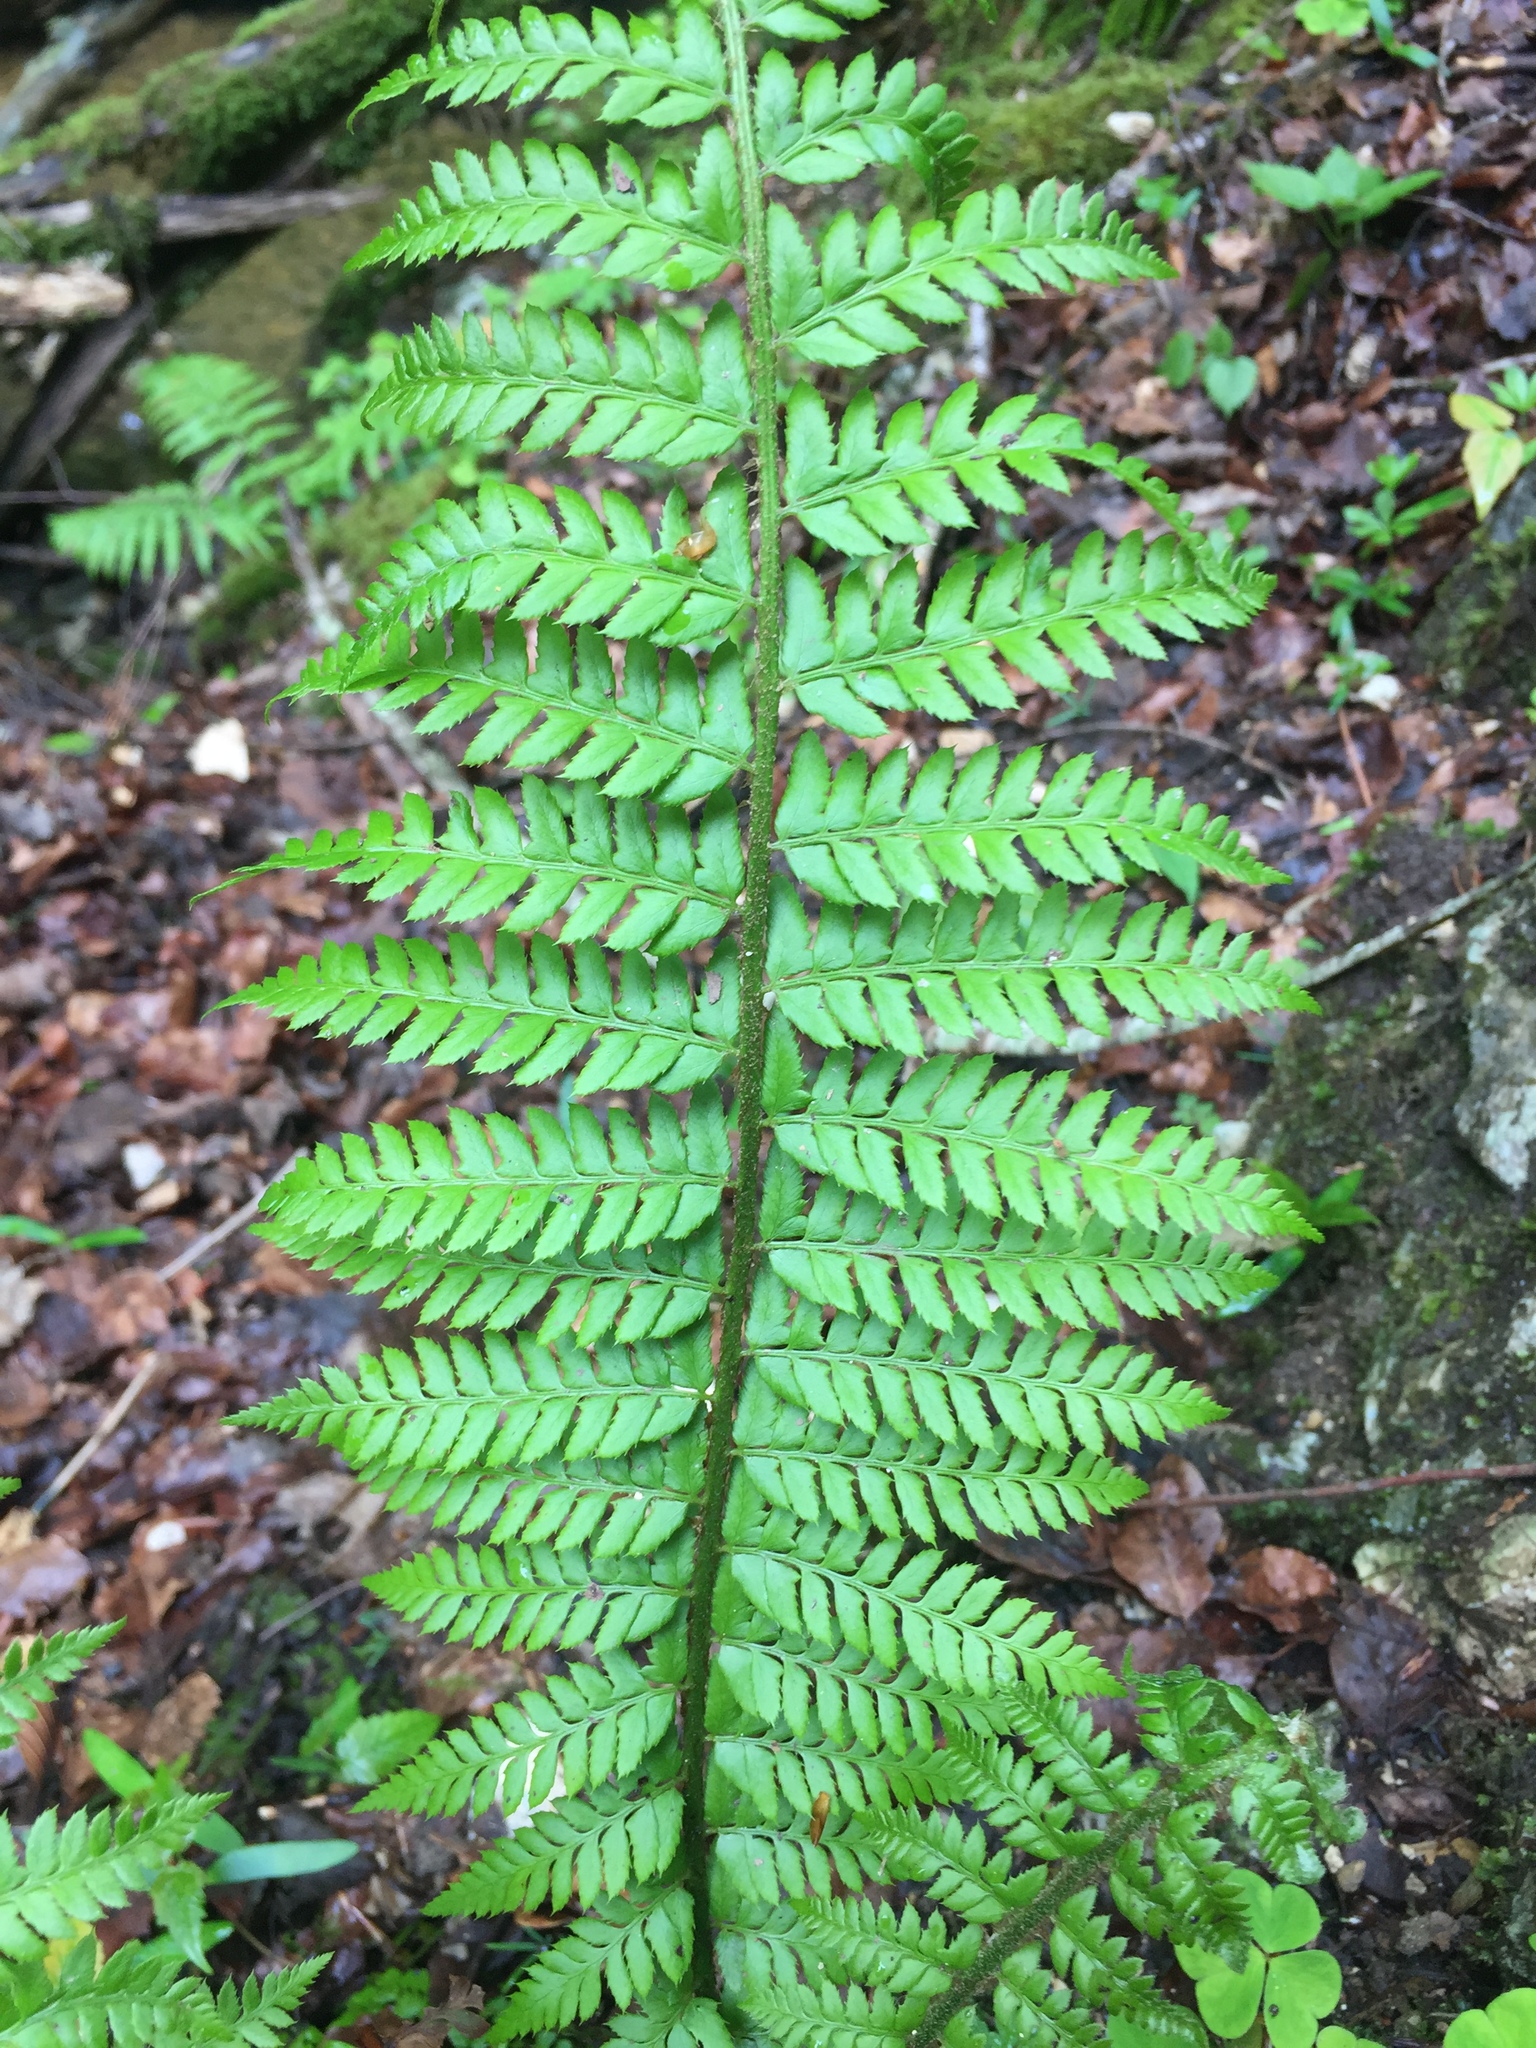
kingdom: Plantae
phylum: Tracheophyta
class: Polypodiopsida
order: Polypodiales
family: Dryopteridaceae
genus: Polystichum
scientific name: Polystichum aculeatum
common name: Hard shield-fern
